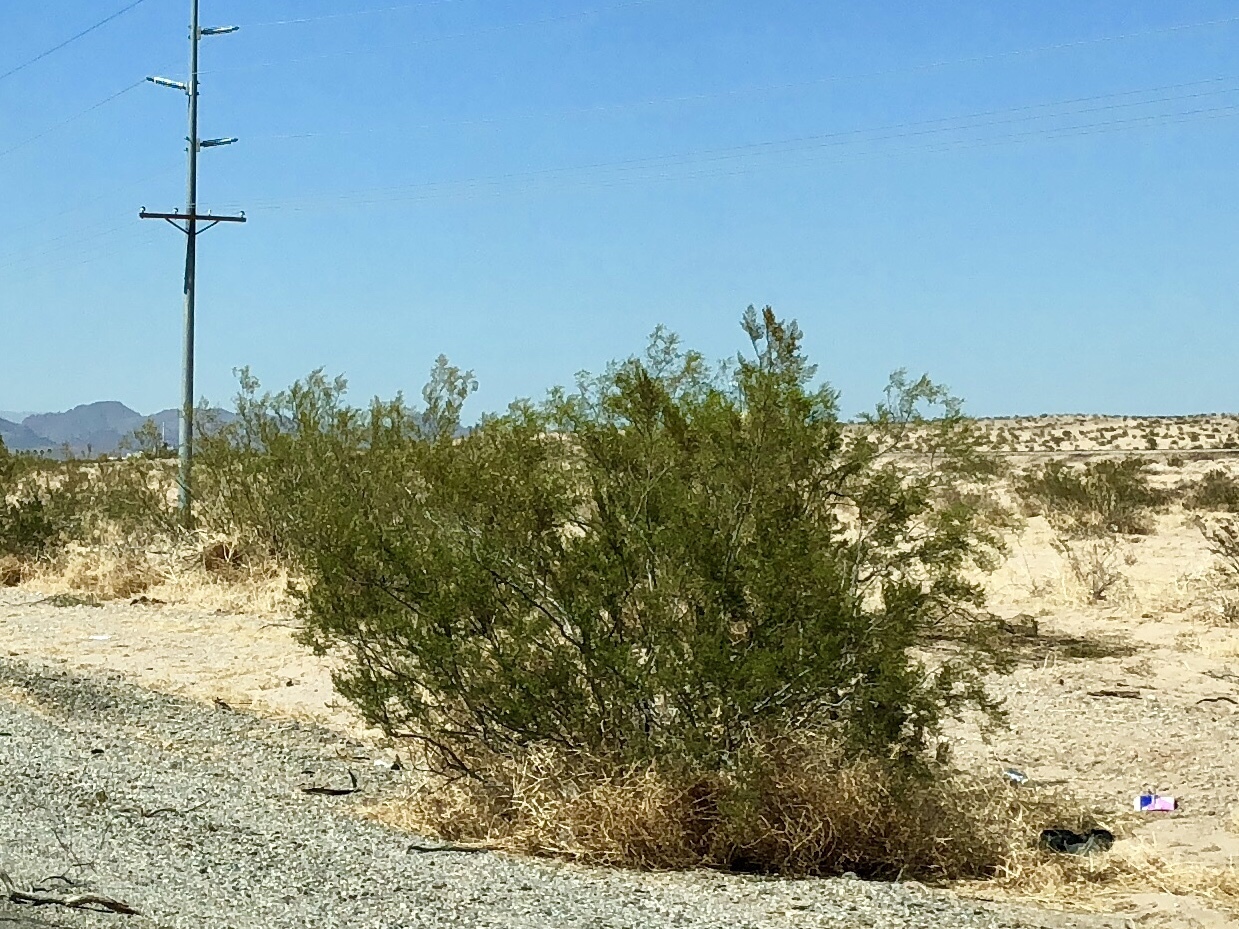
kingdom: Plantae
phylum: Tracheophyta
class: Magnoliopsida
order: Zygophyllales
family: Zygophyllaceae
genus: Larrea
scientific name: Larrea tridentata
